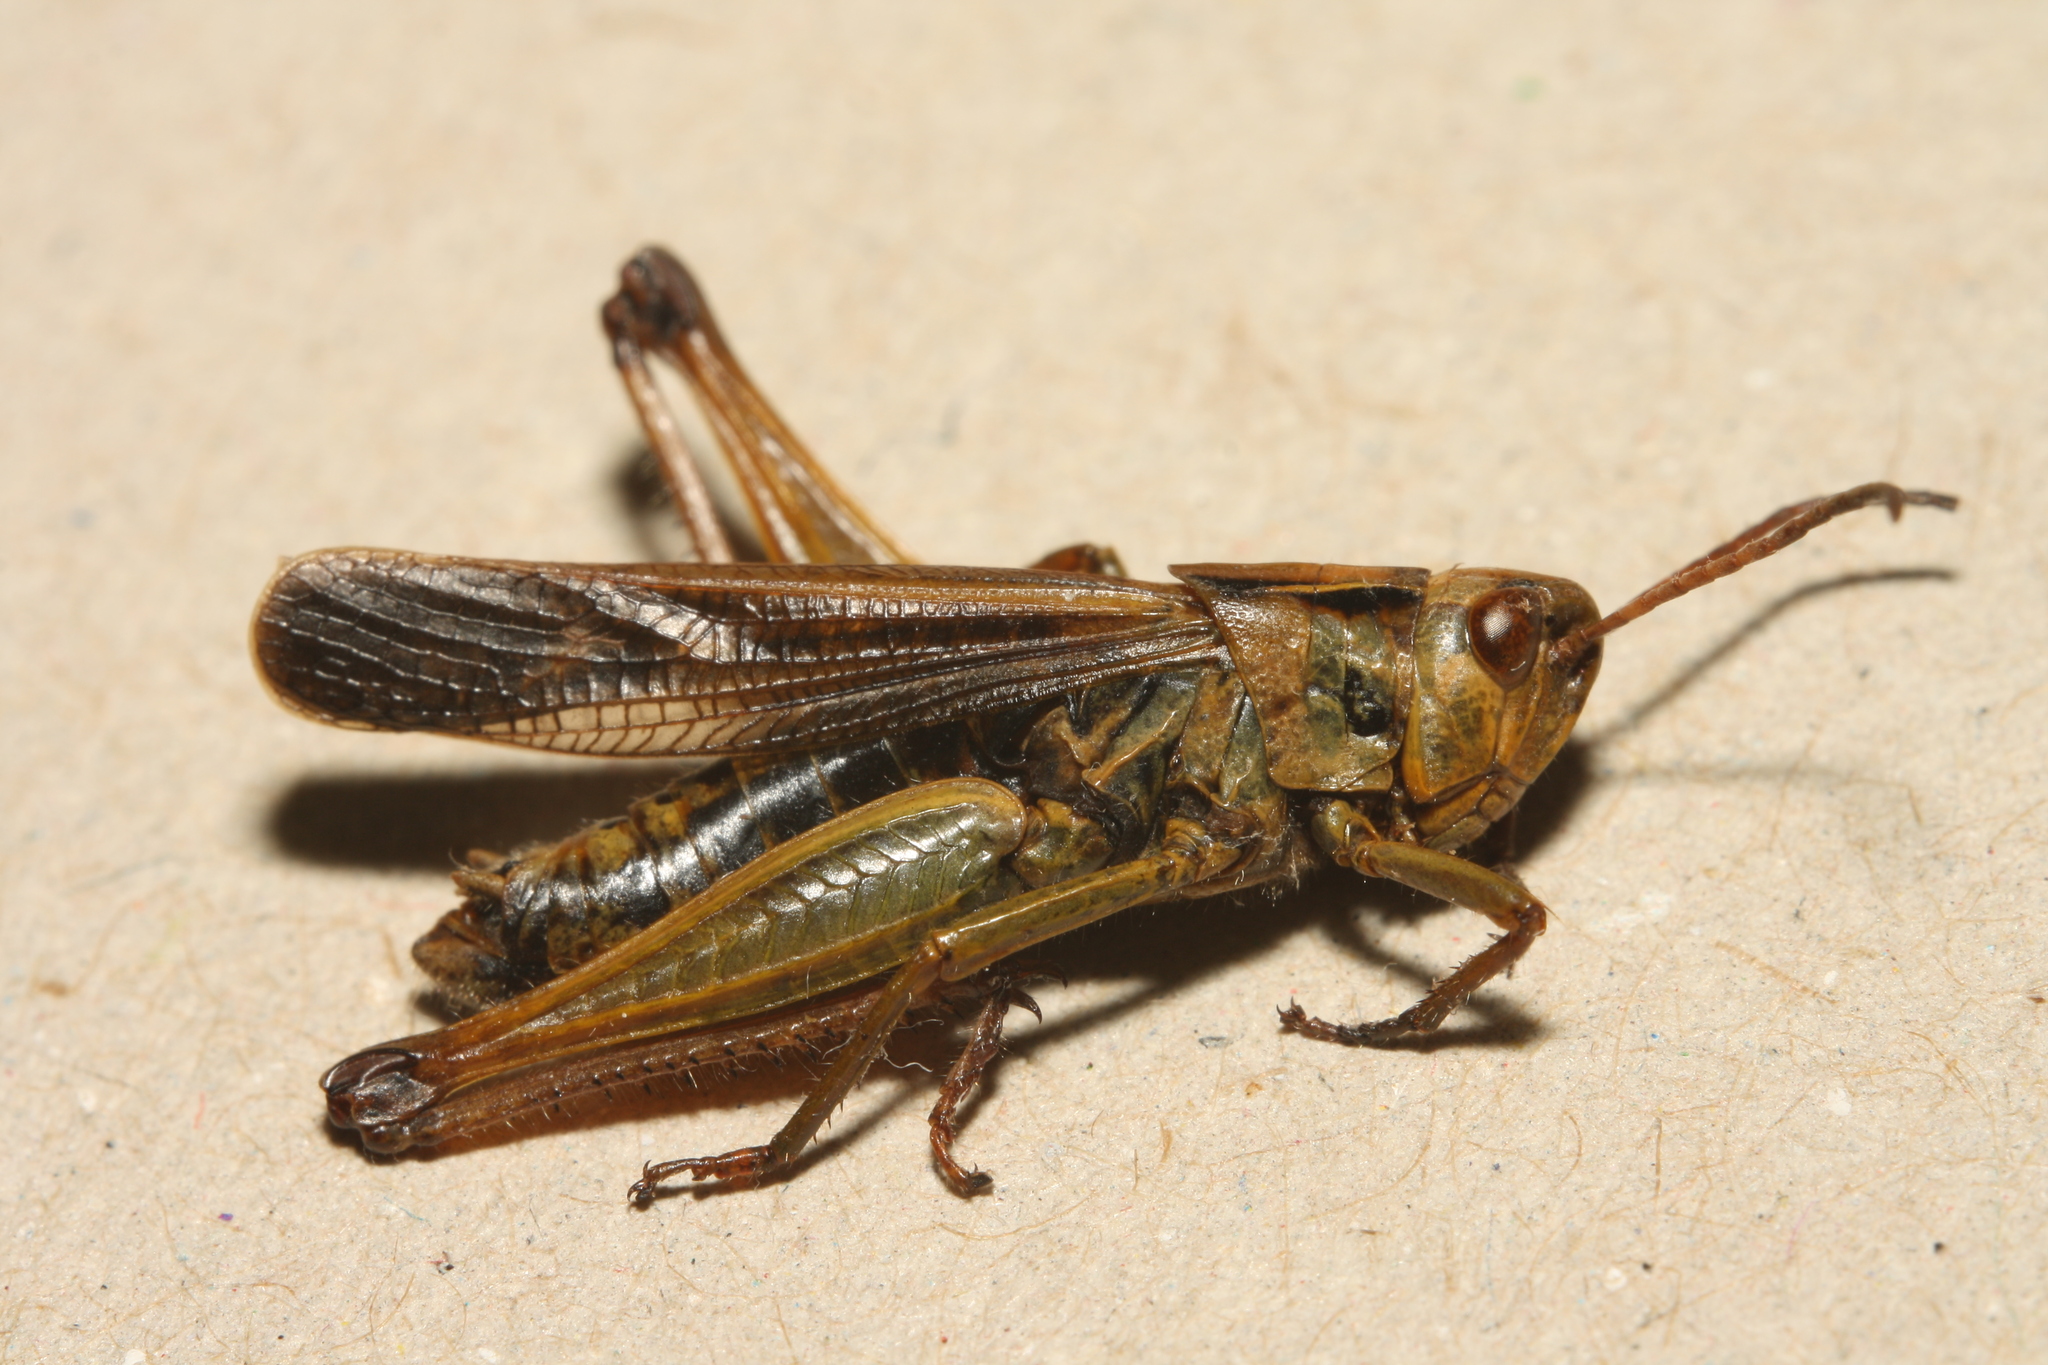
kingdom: Animalia
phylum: Arthropoda
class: Insecta
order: Orthoptera
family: Acrididae
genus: Omocestus
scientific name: Omocestus viridulus
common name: Common green grasshopper
